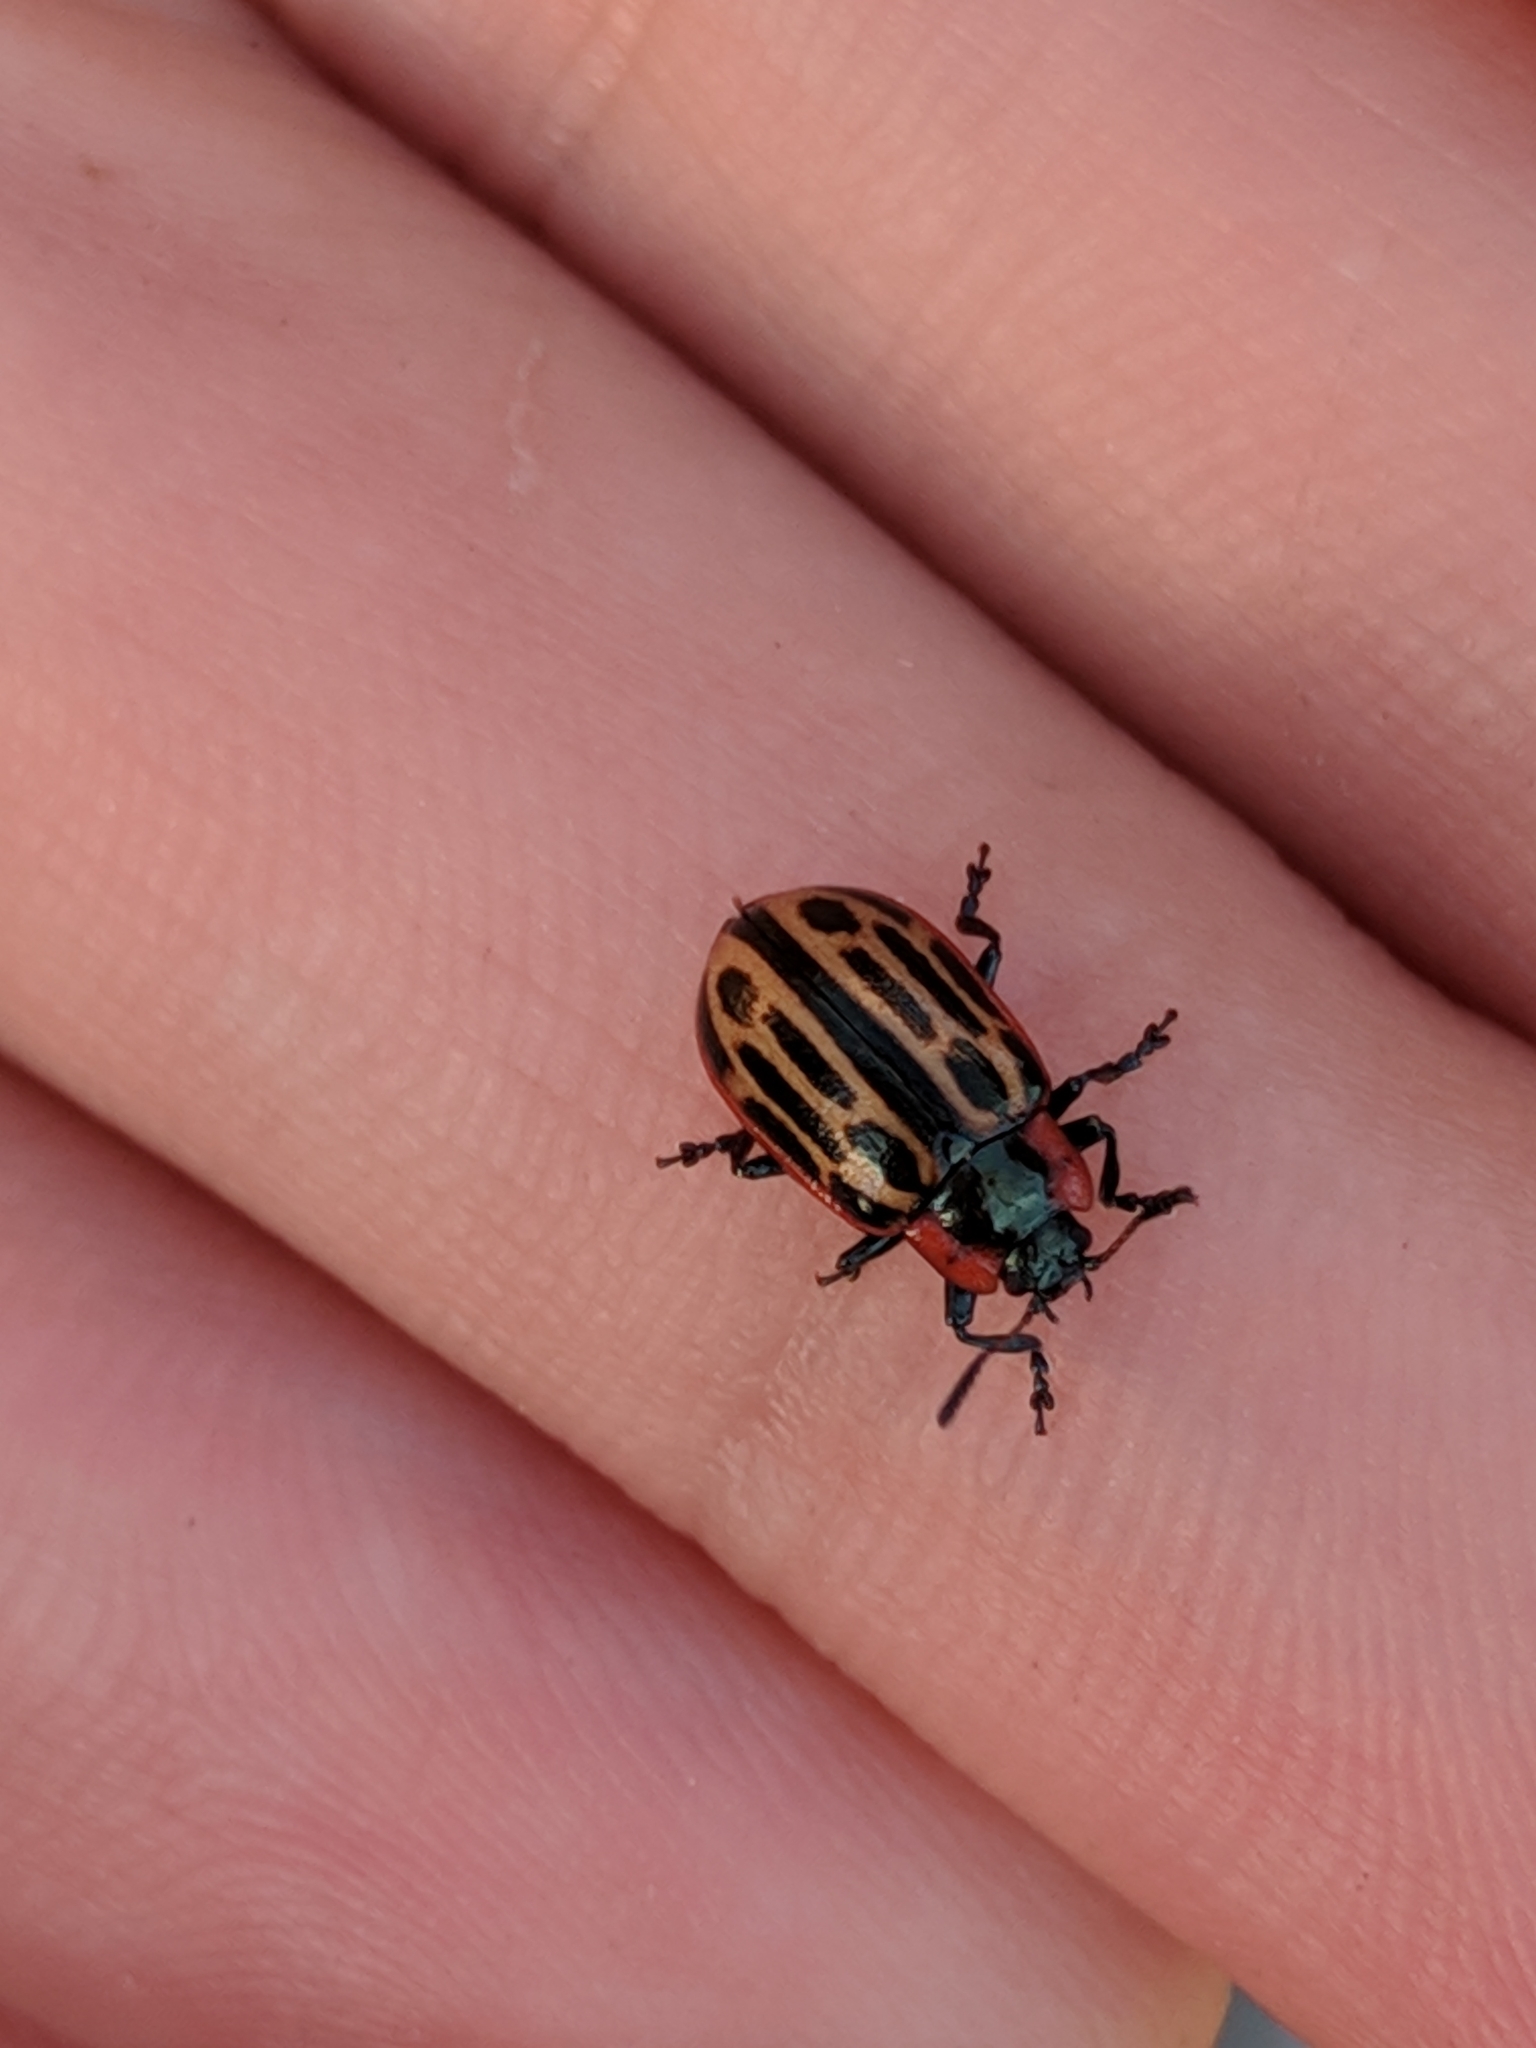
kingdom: Animalia
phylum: Arthropoda
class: Insecta
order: Coleoptera
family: Chrysomelidae
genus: Aethiopocassis
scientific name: Aethiopocassis scripta
